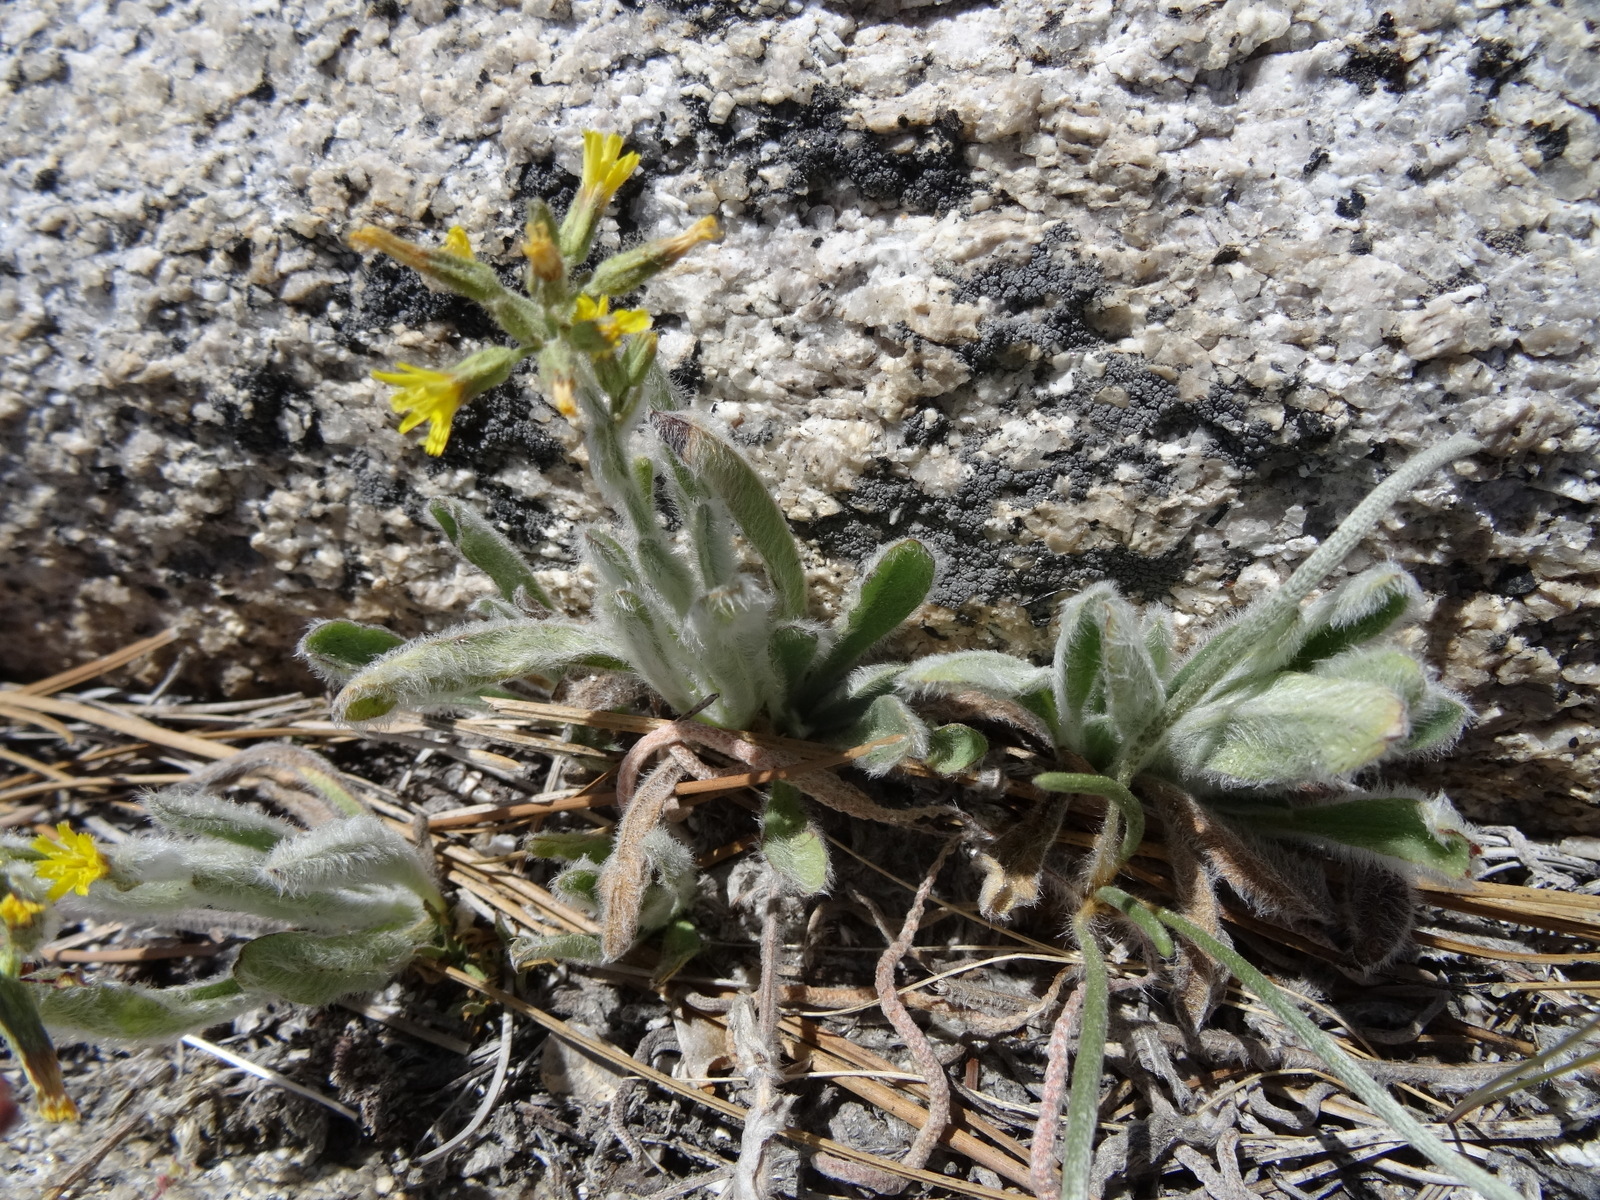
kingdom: Plantae
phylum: Tracheophyta
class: Magnoliopsida
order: Asterales
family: Asteraceae
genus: Hieracium
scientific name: Hieracium horridum
